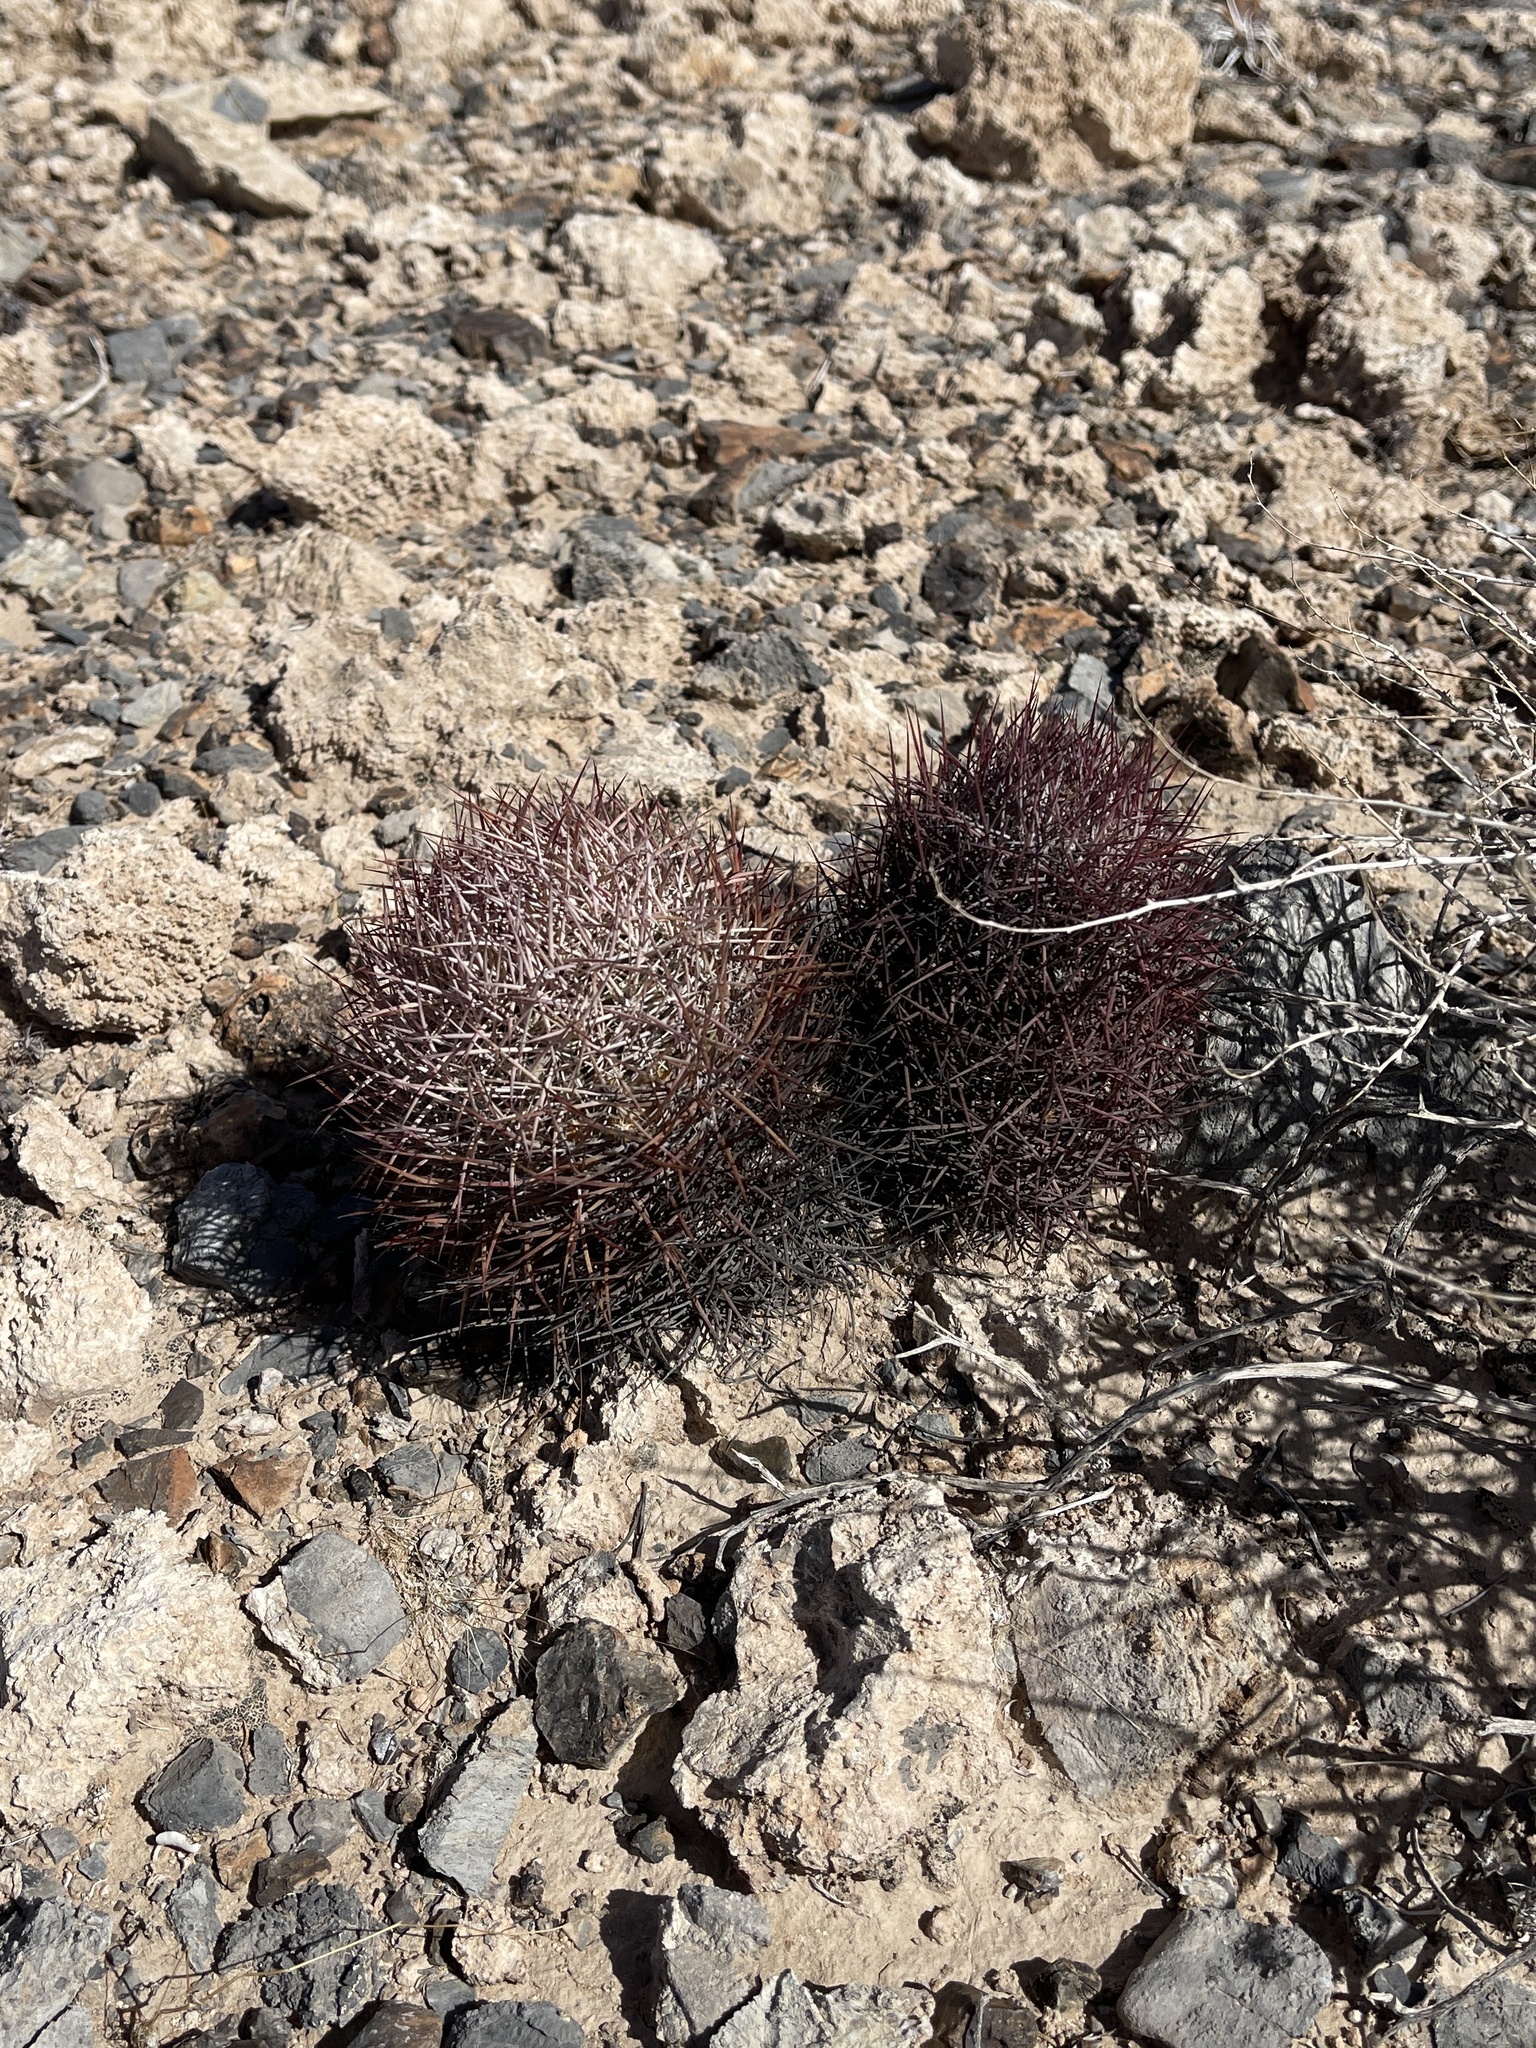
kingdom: Plantae
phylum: Tracheophyta
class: Magnoliopsida
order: Caryophyllales
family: Cactaceae
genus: Sclerocactus
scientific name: Sclerocactus johnsonii
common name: Eight-spine fishhook cactus
